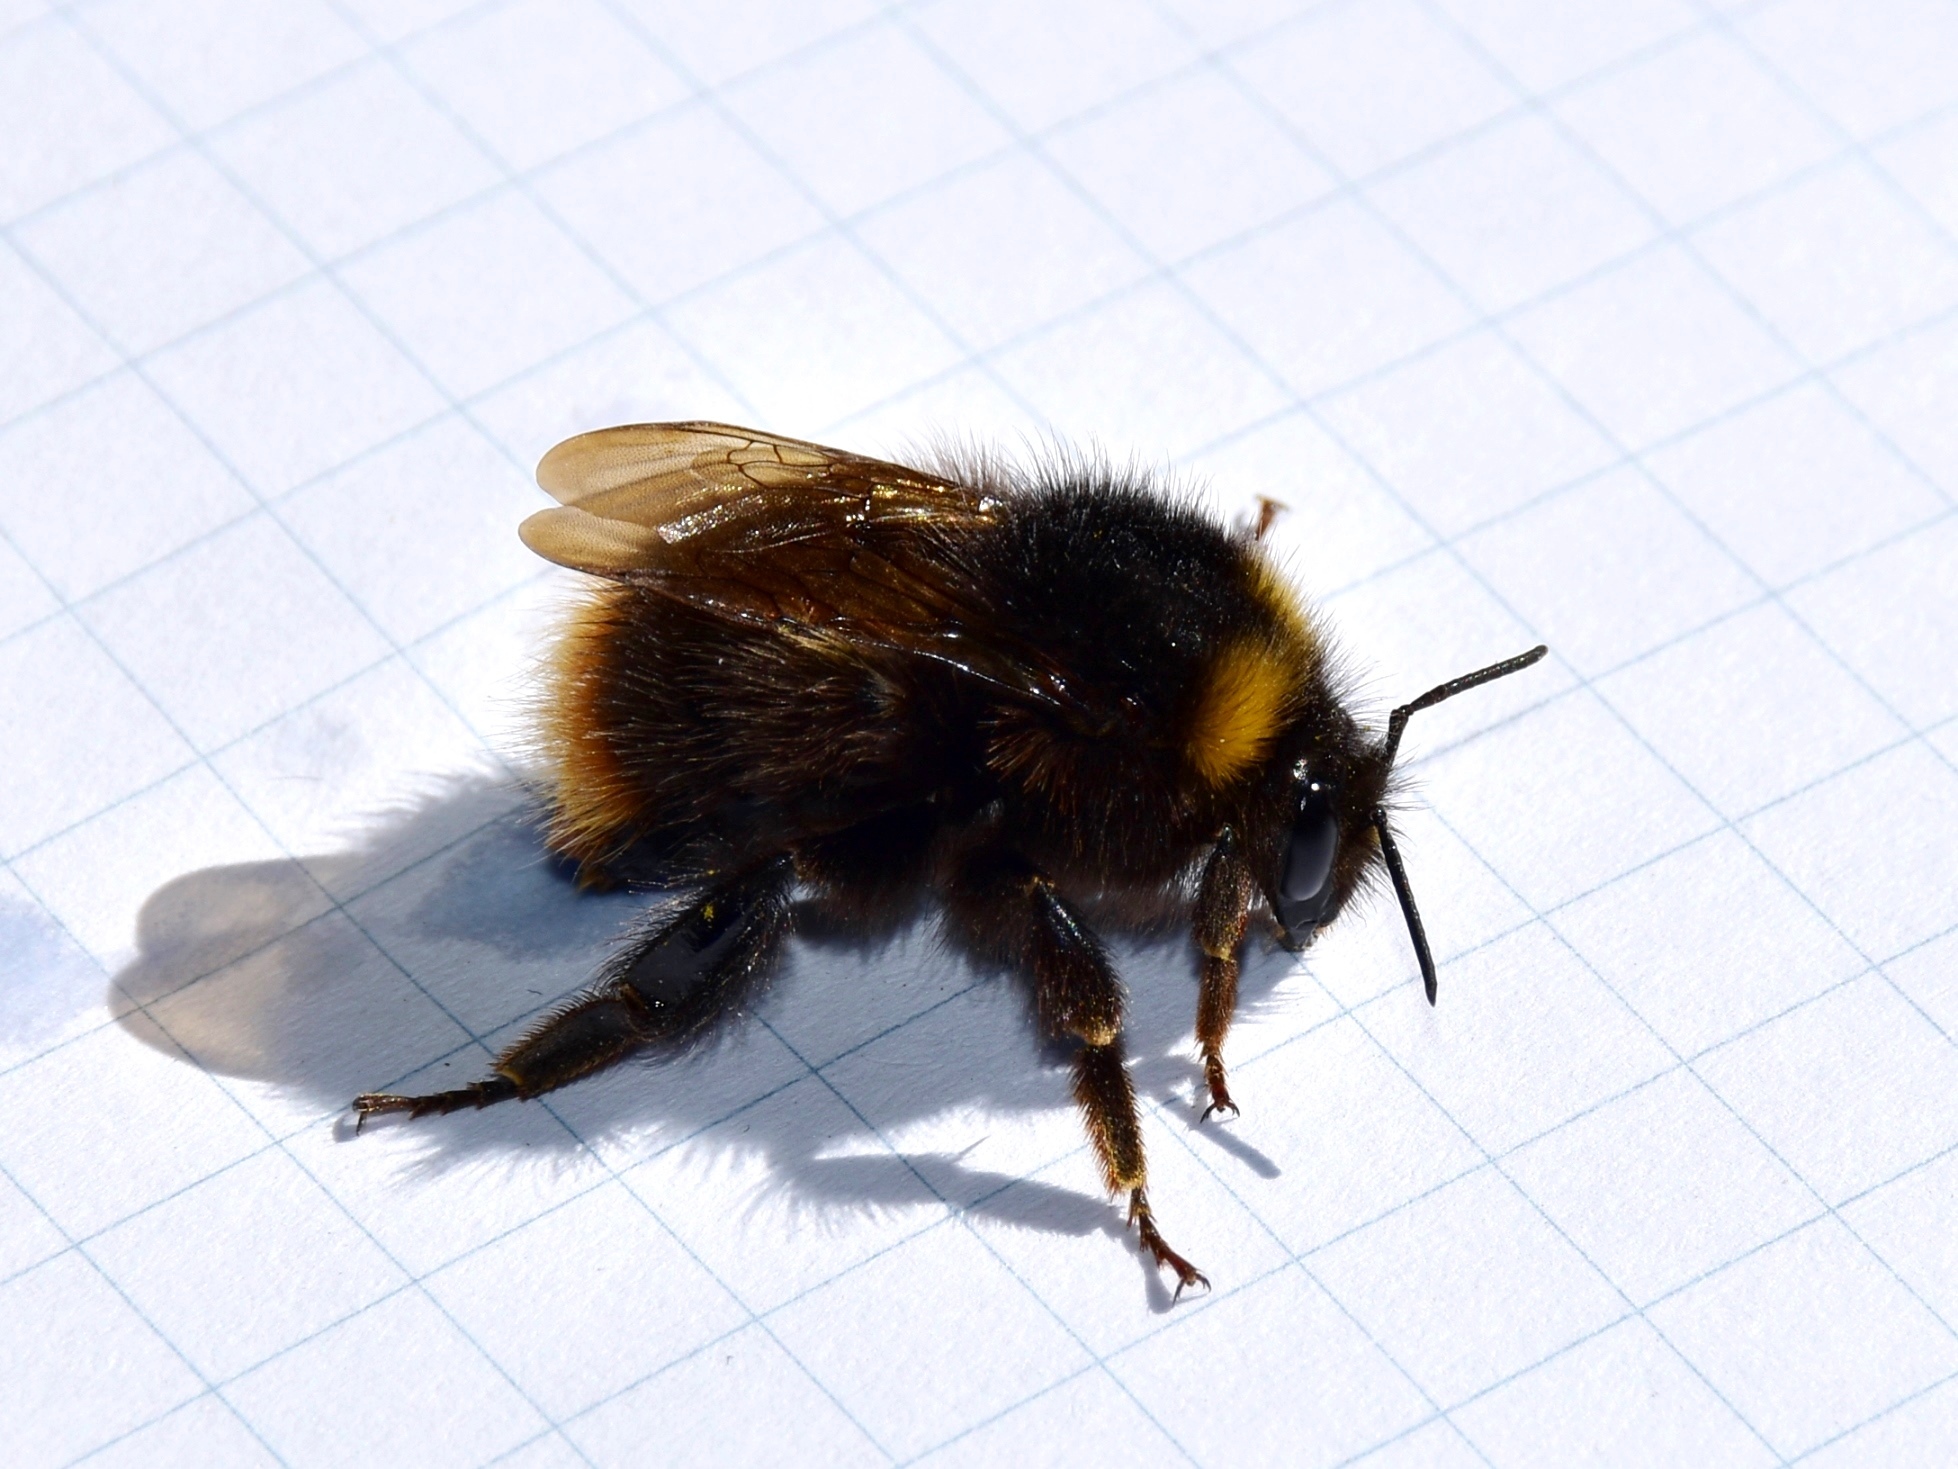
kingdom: Animalia
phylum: Arthropoda
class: Insecta
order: Hymenoptera
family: Apidae
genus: Bombus
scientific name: Bombus pratorum
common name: Early humble-bee
